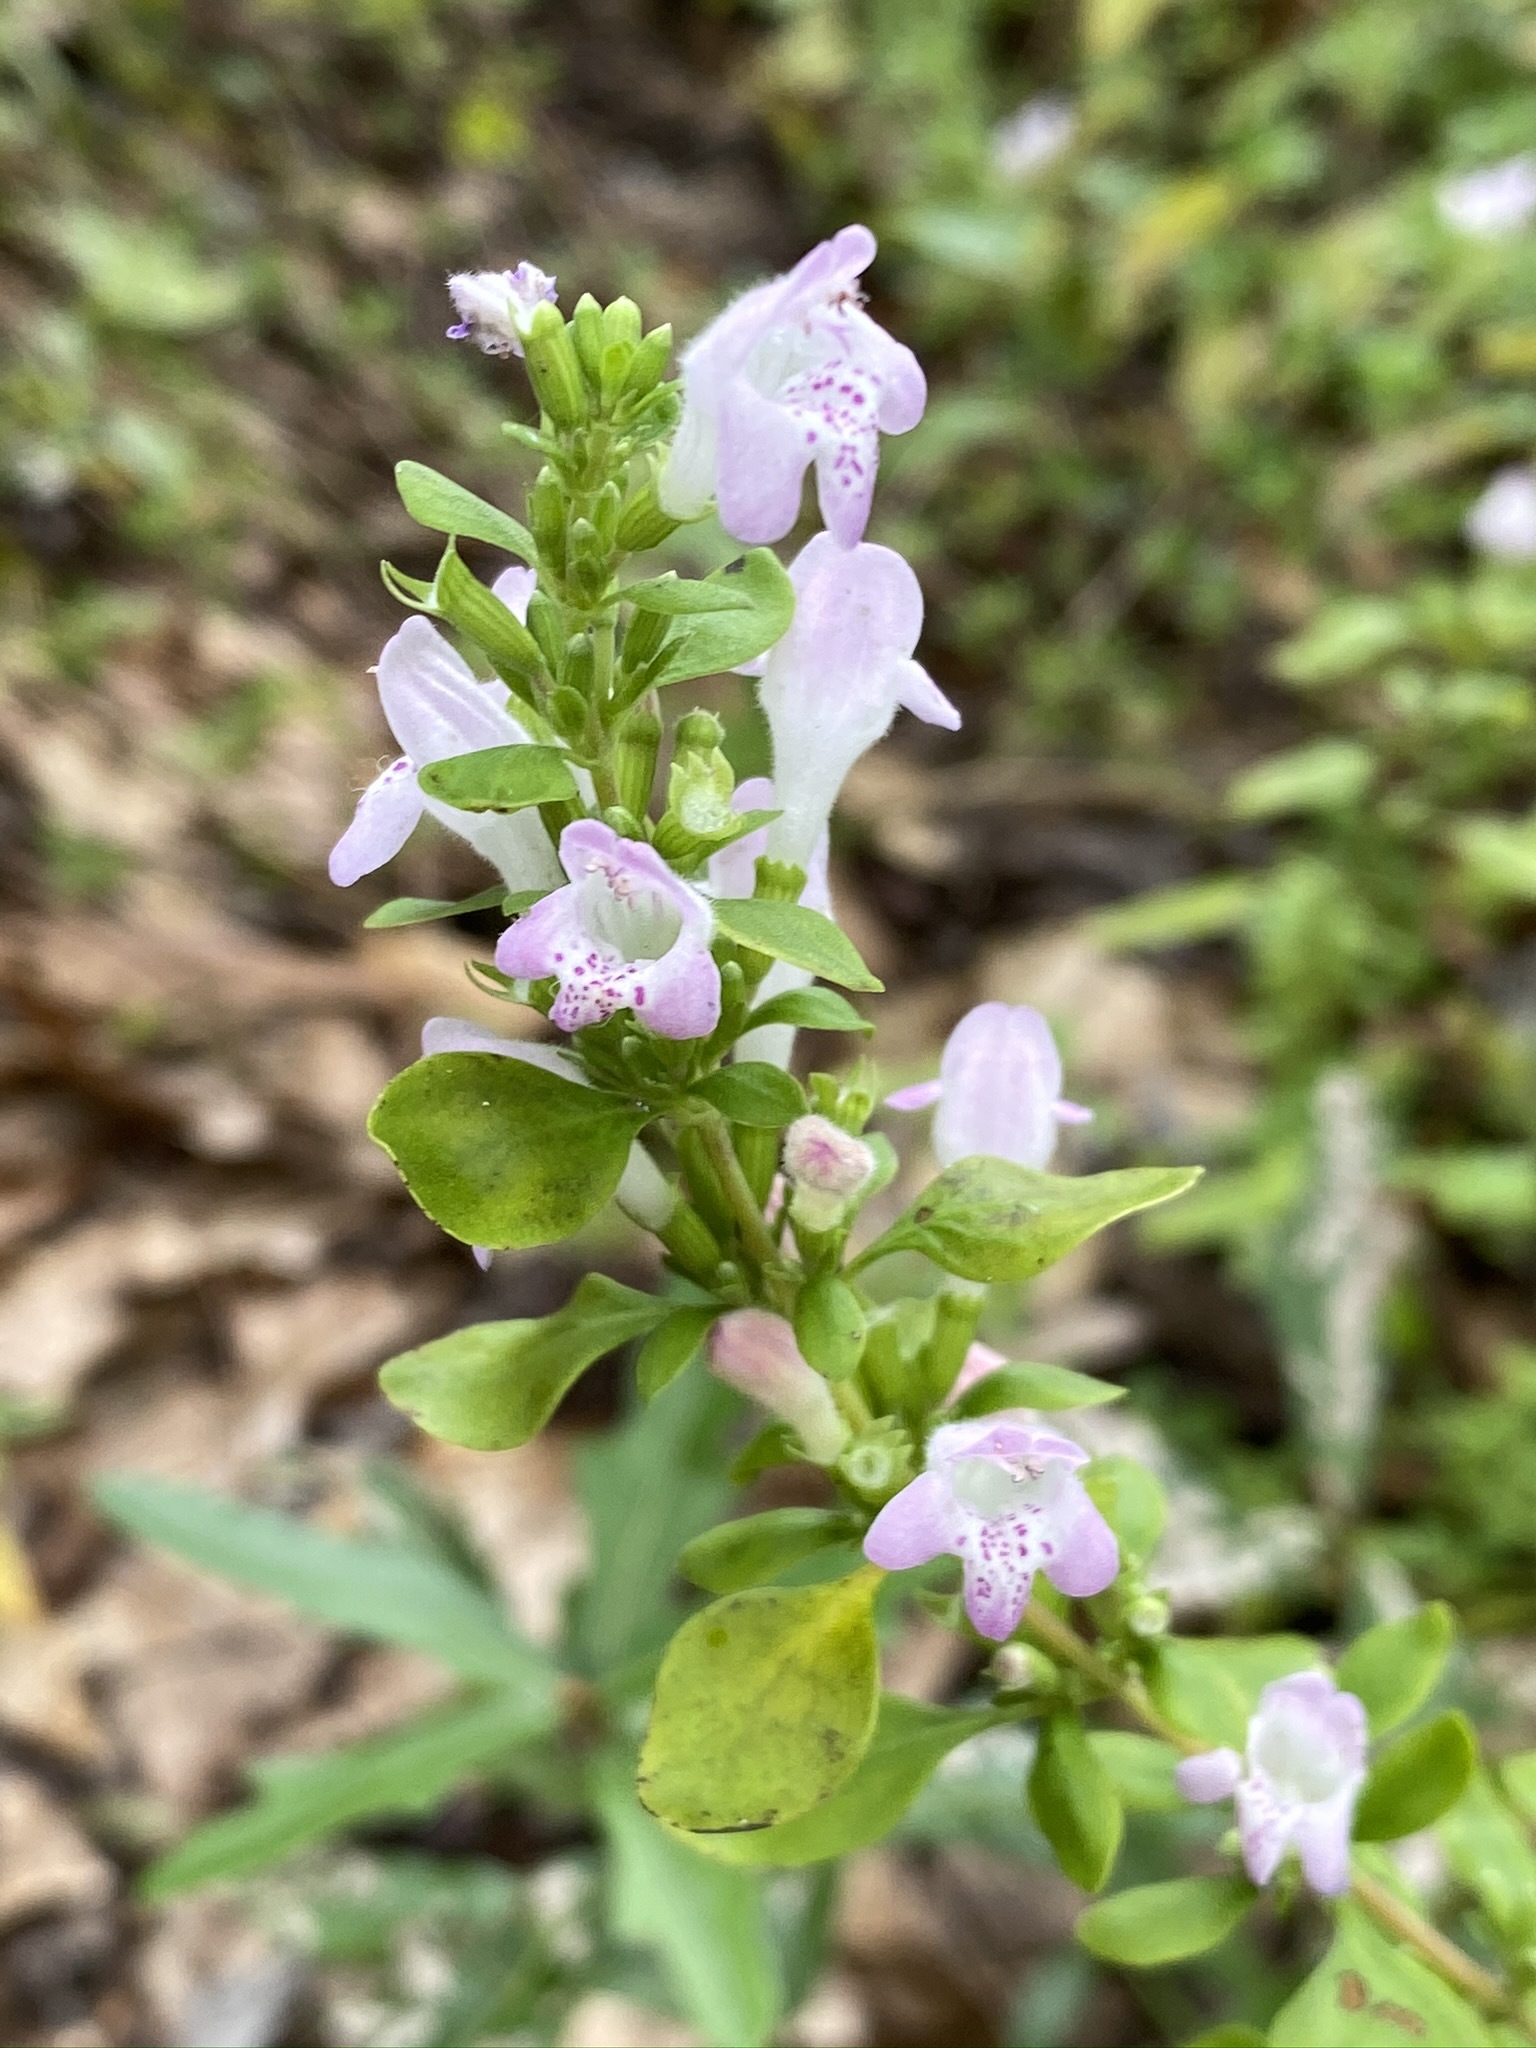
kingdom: Plantae
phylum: Tracheophyta
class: Magnoliopsida
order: Lamiales
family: Lamiaceae
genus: Clinopodium
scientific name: Clinopodium carolinianum
